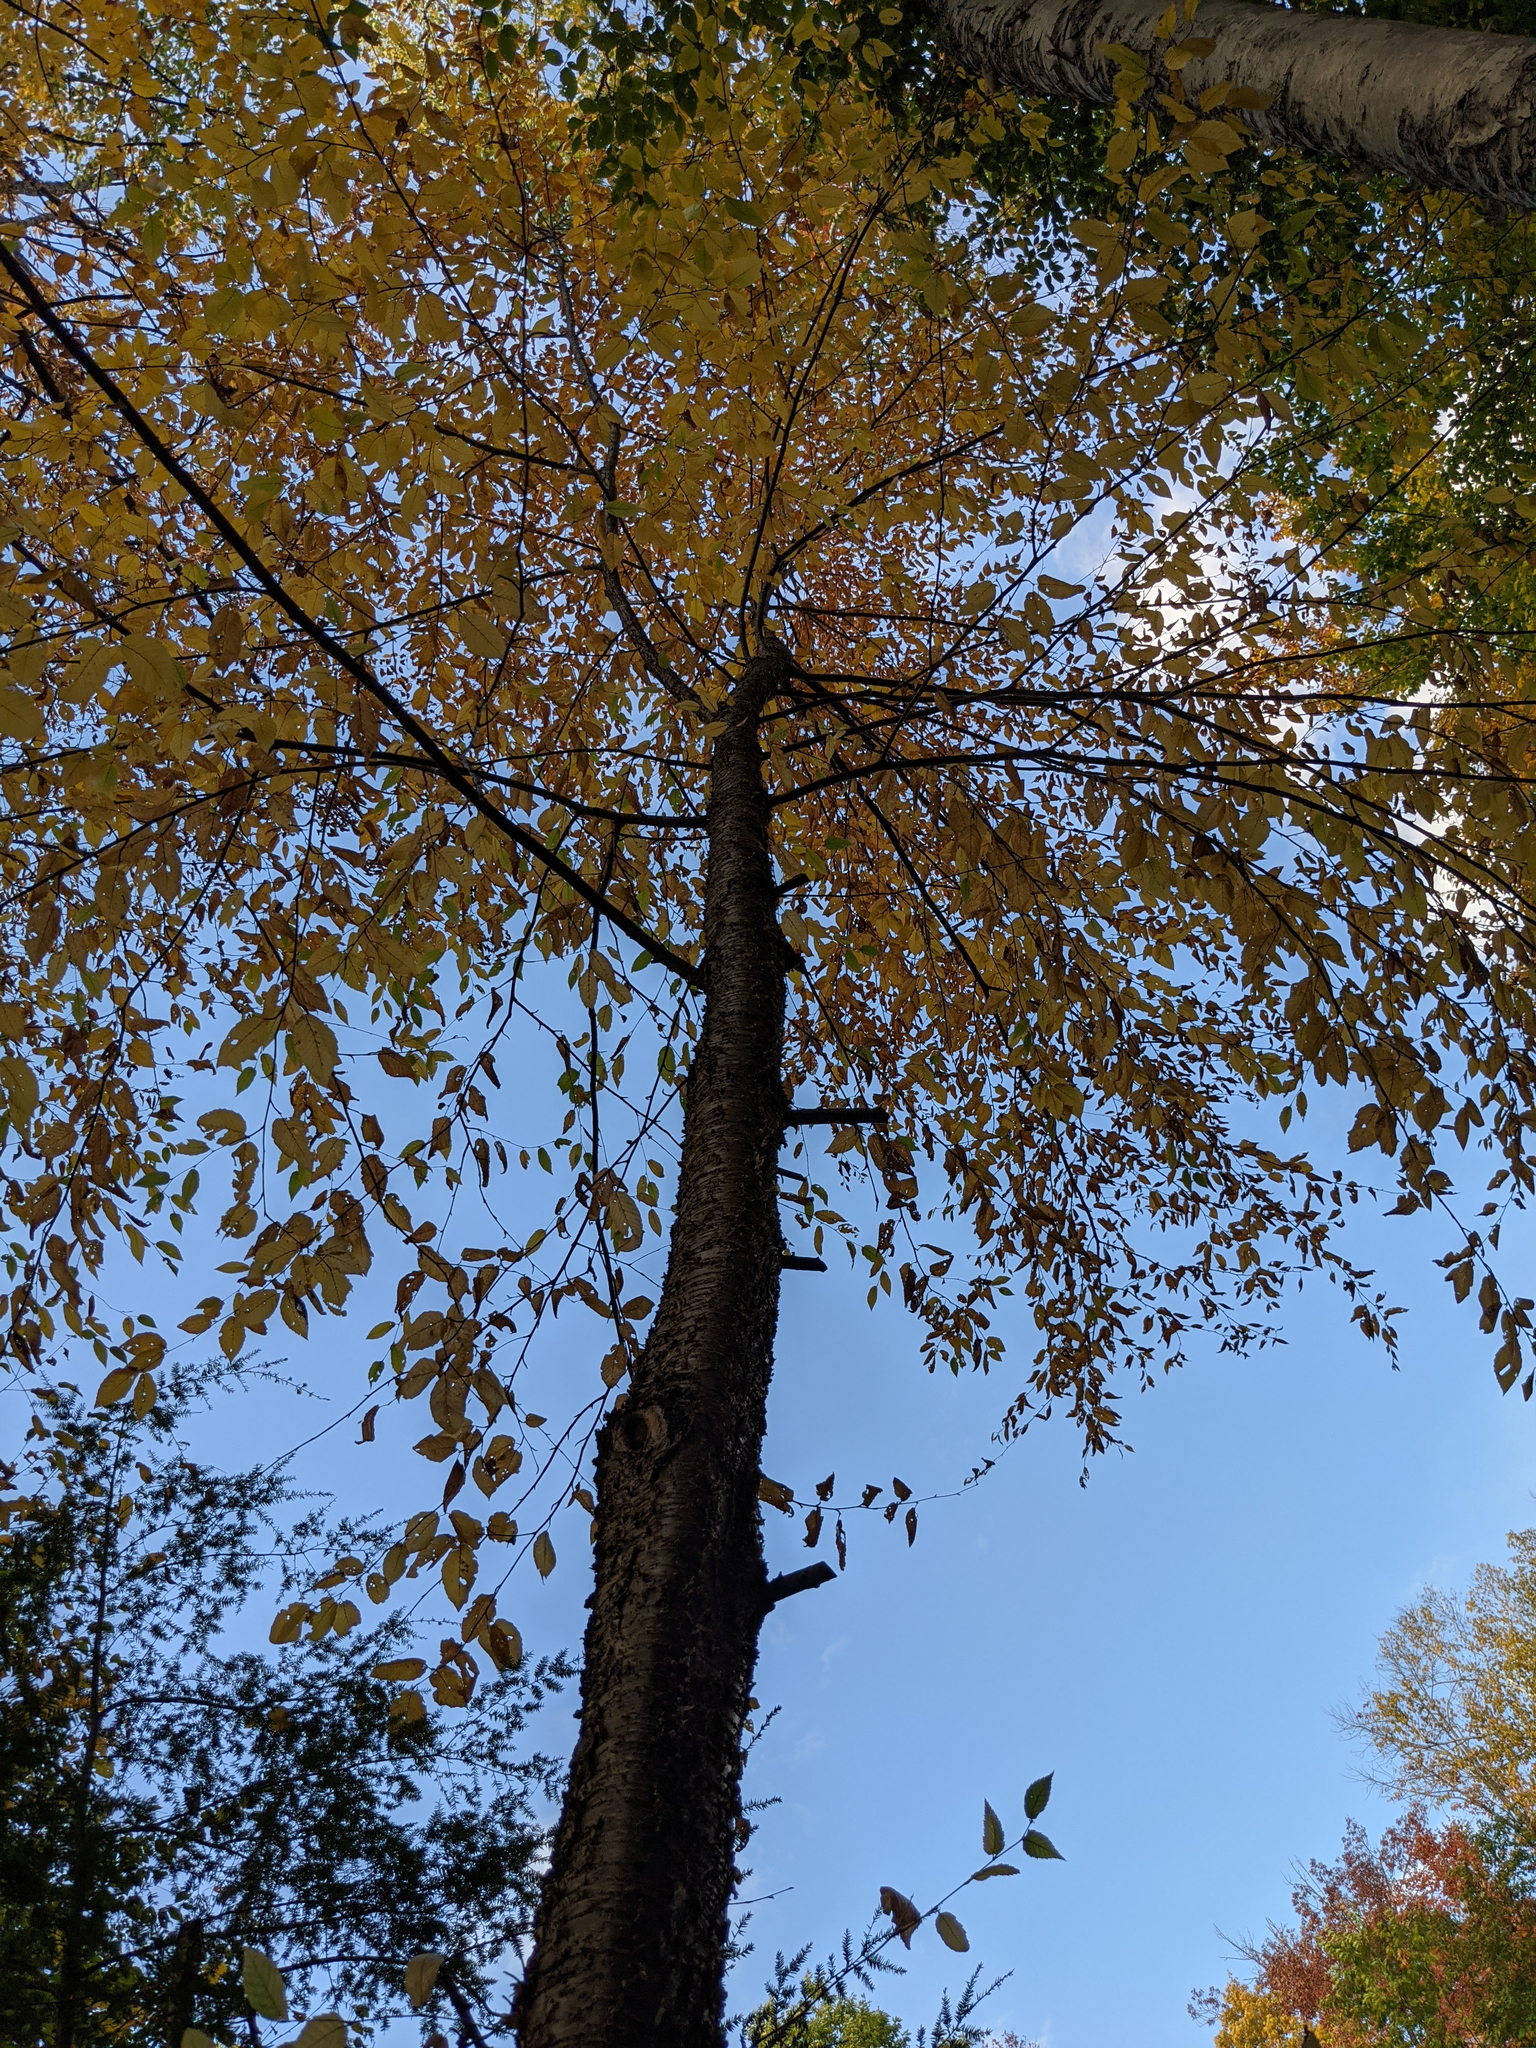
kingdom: Plantae
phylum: Tracheophyta
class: Magnoliopsida
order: Fagales
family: Betulaceae
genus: Betula
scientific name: Betula alleghaniensis
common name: Yellow birch
